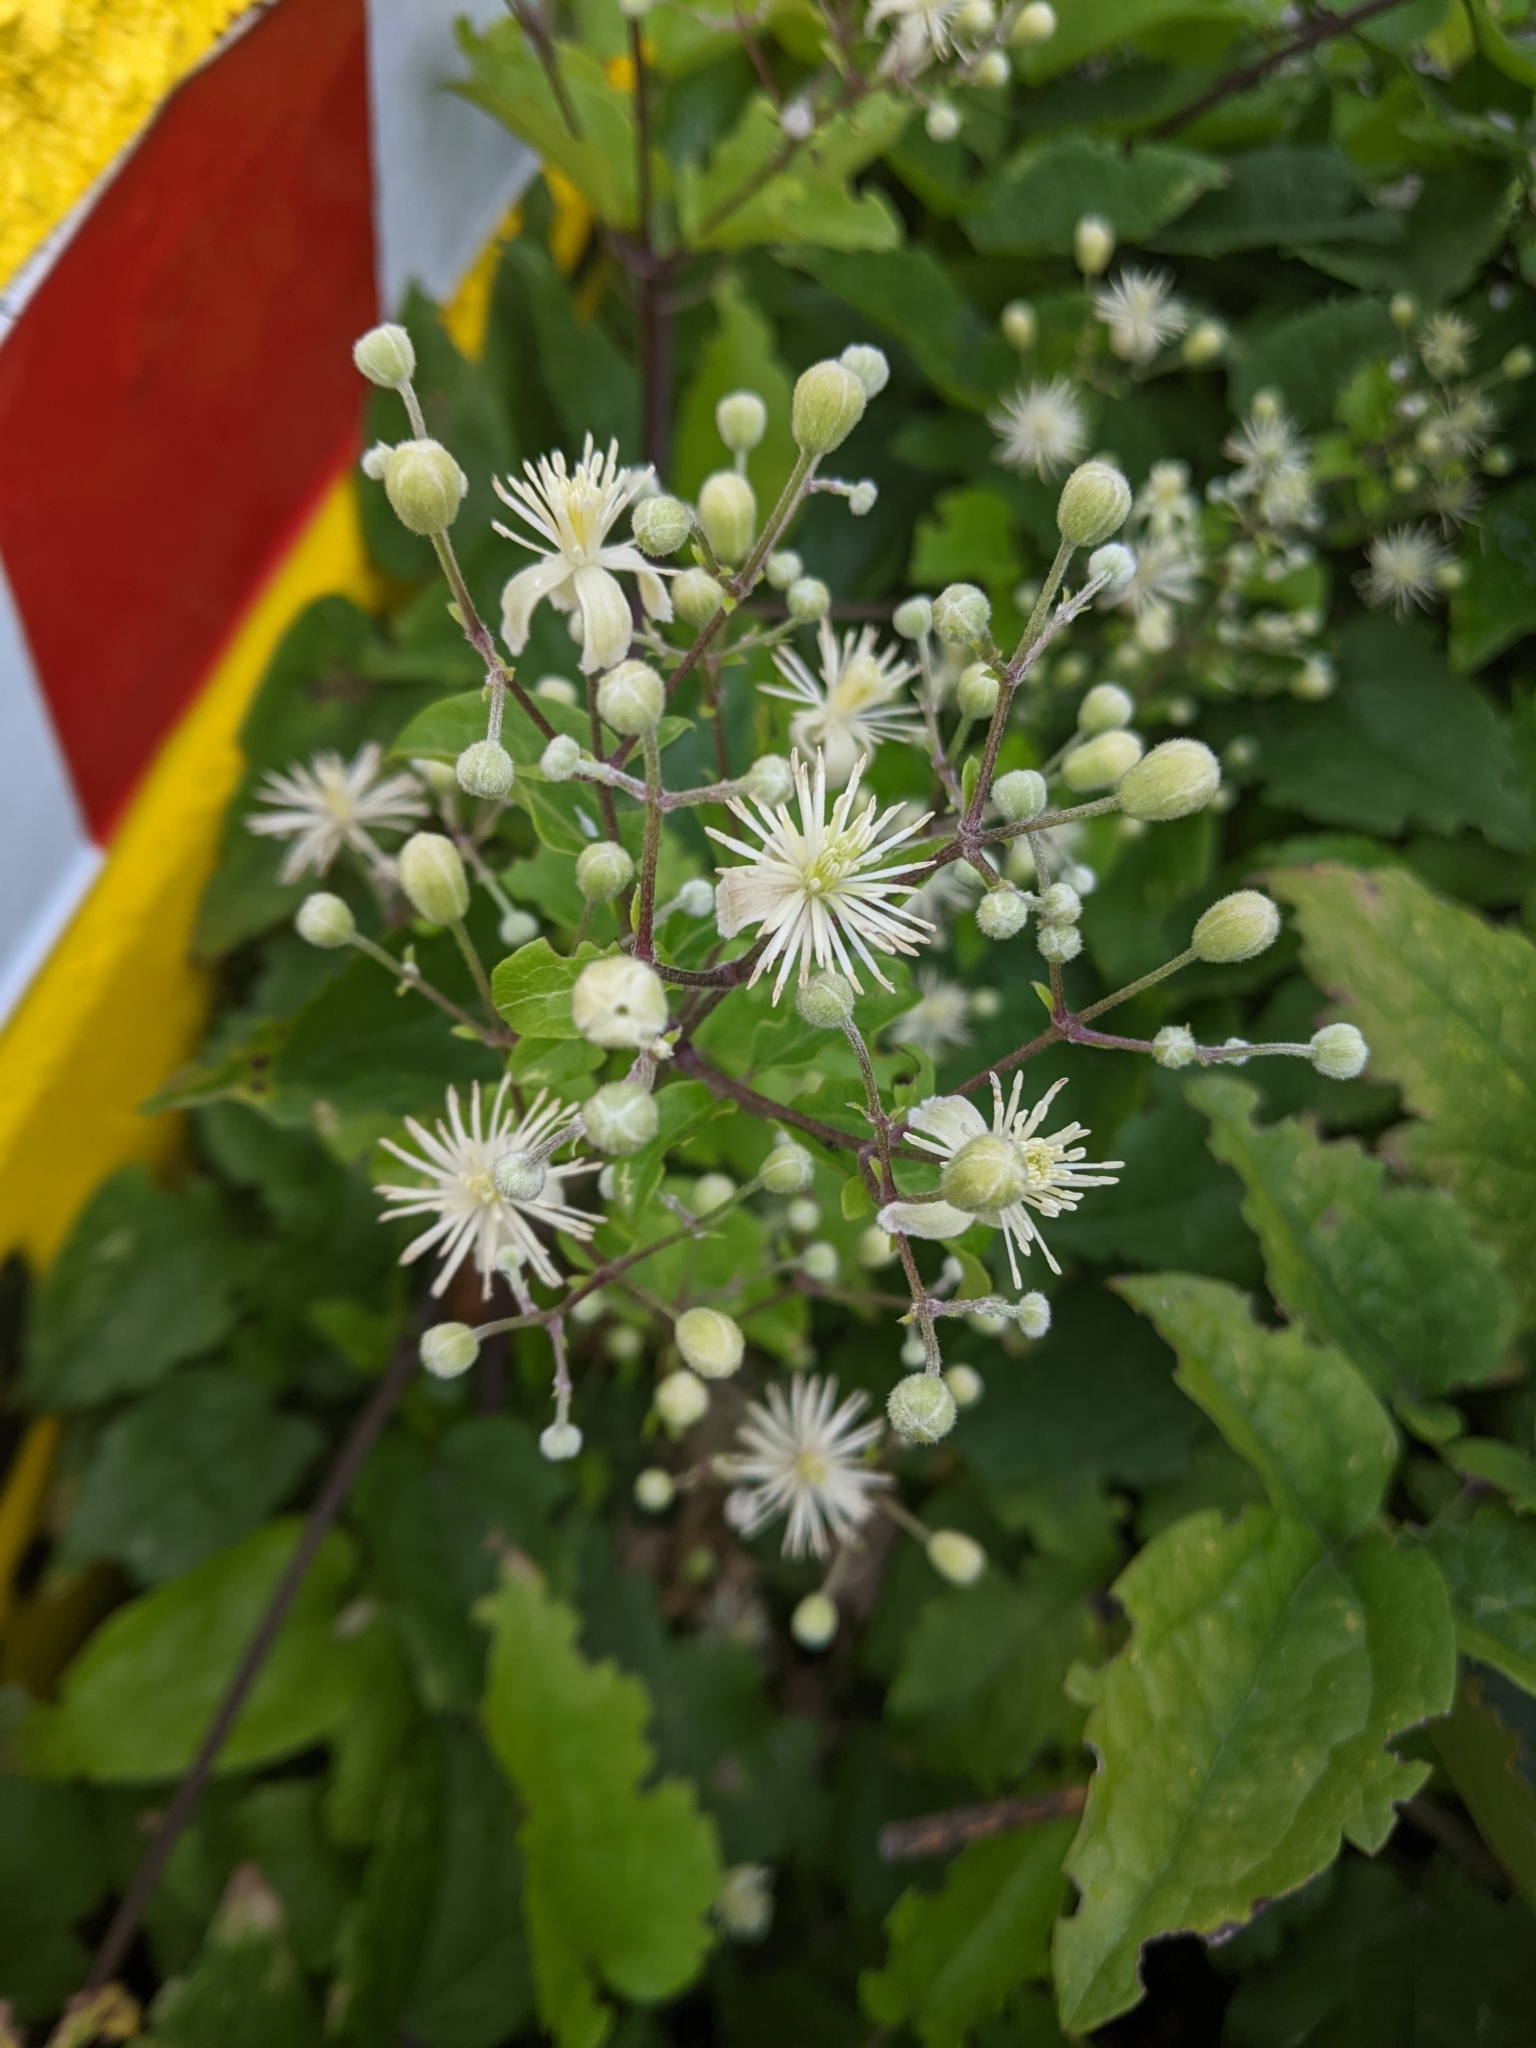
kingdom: Plantae
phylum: Tracheophyta
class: Magnoliopsida
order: Ranunculales
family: Ranunculaceae
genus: Clematis
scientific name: Clematis vitalba
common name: Evergreen clematis
